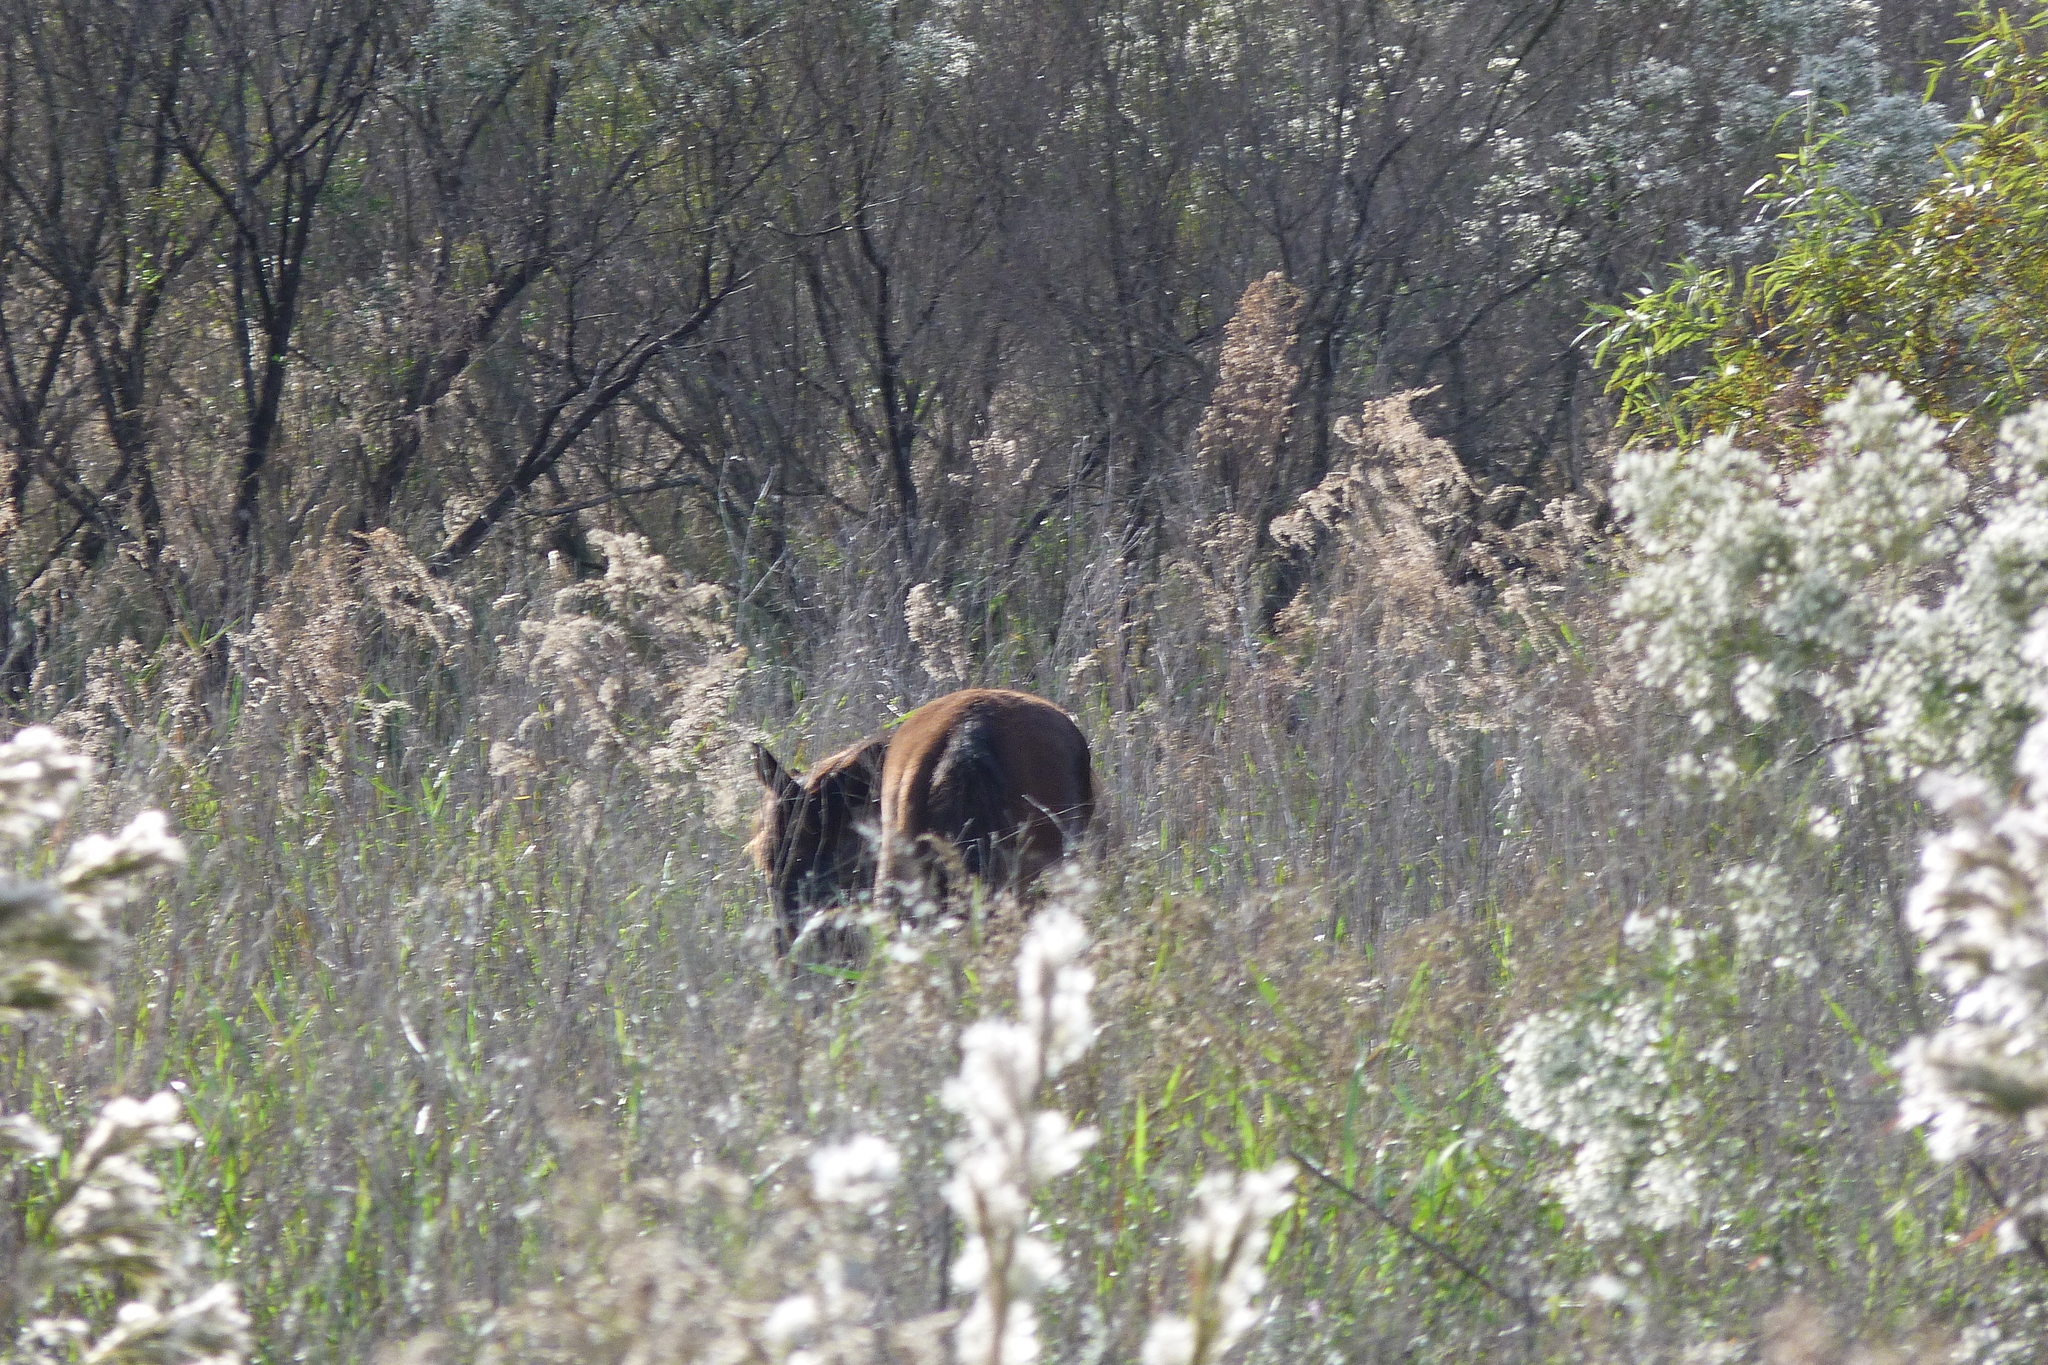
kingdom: Animalia
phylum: Chordata
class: Mammalia
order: Perissodactyla
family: Equidae
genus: Equus
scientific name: Equus caballus
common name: Horse
